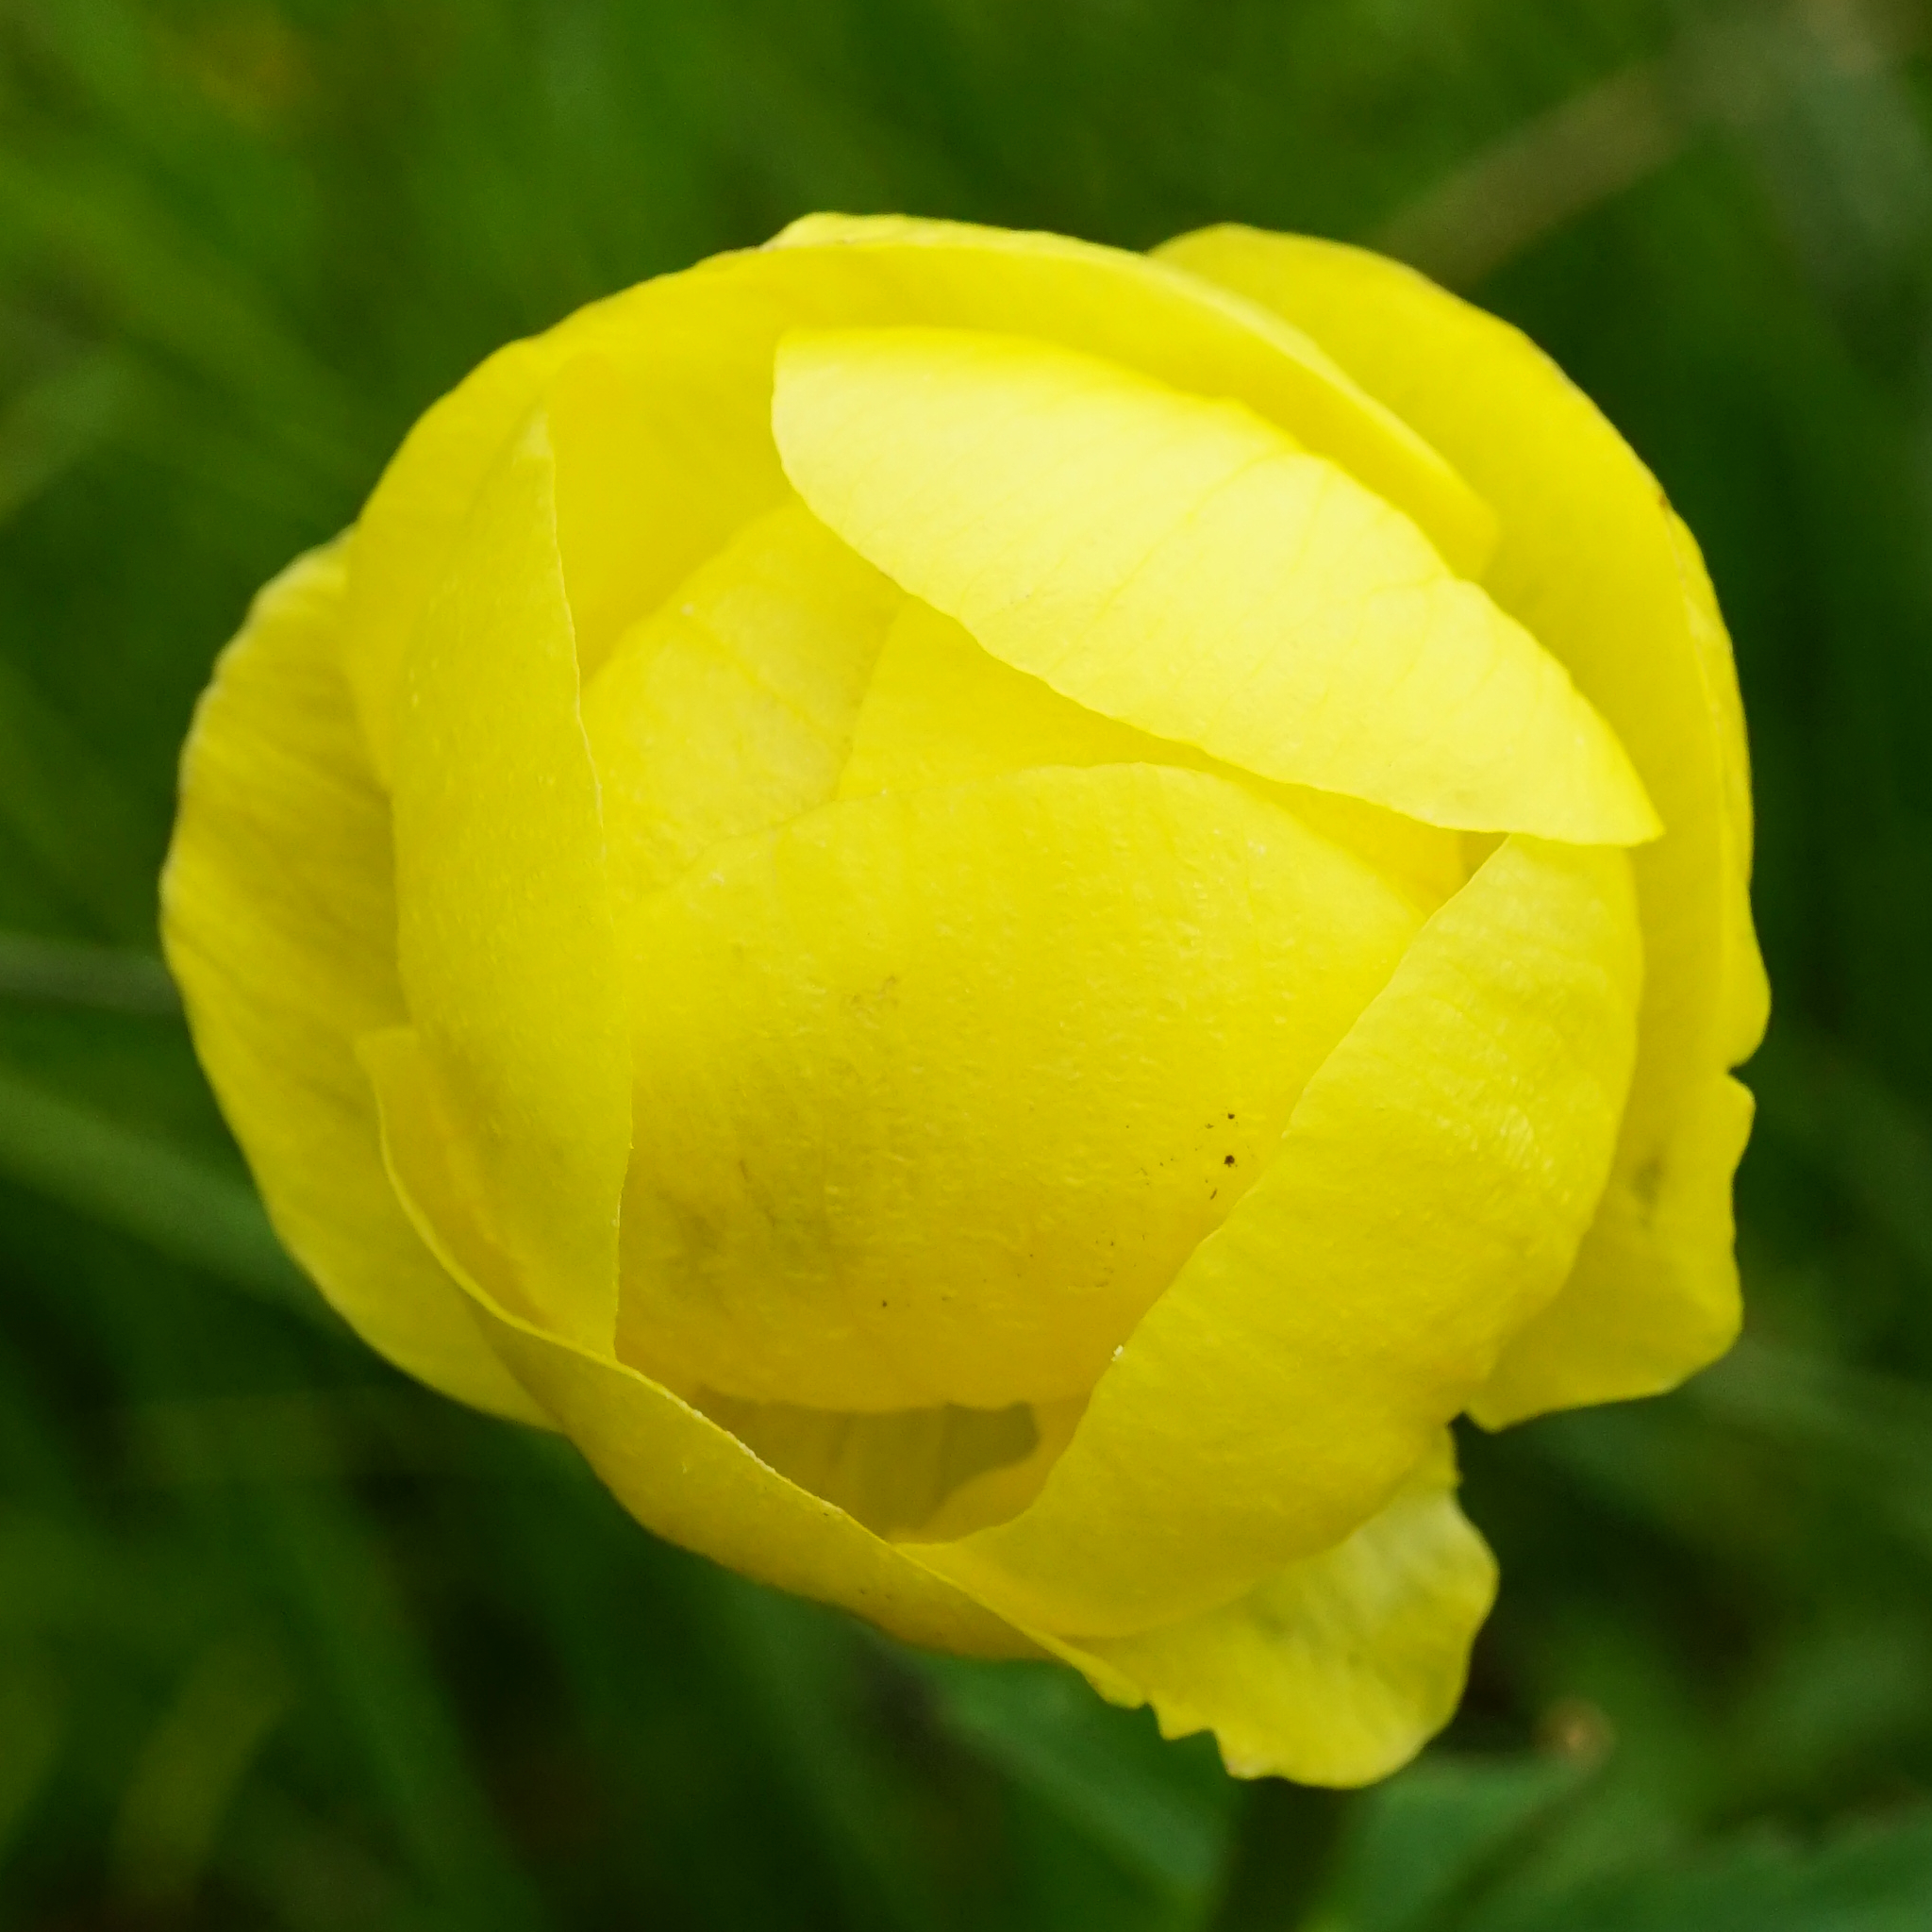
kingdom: Plantae
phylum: Tracheophyta
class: Magnoliopsida
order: Ranunculales
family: Ranunculaceae
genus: Trollius
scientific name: Trollius europaeus
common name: European globeflower
